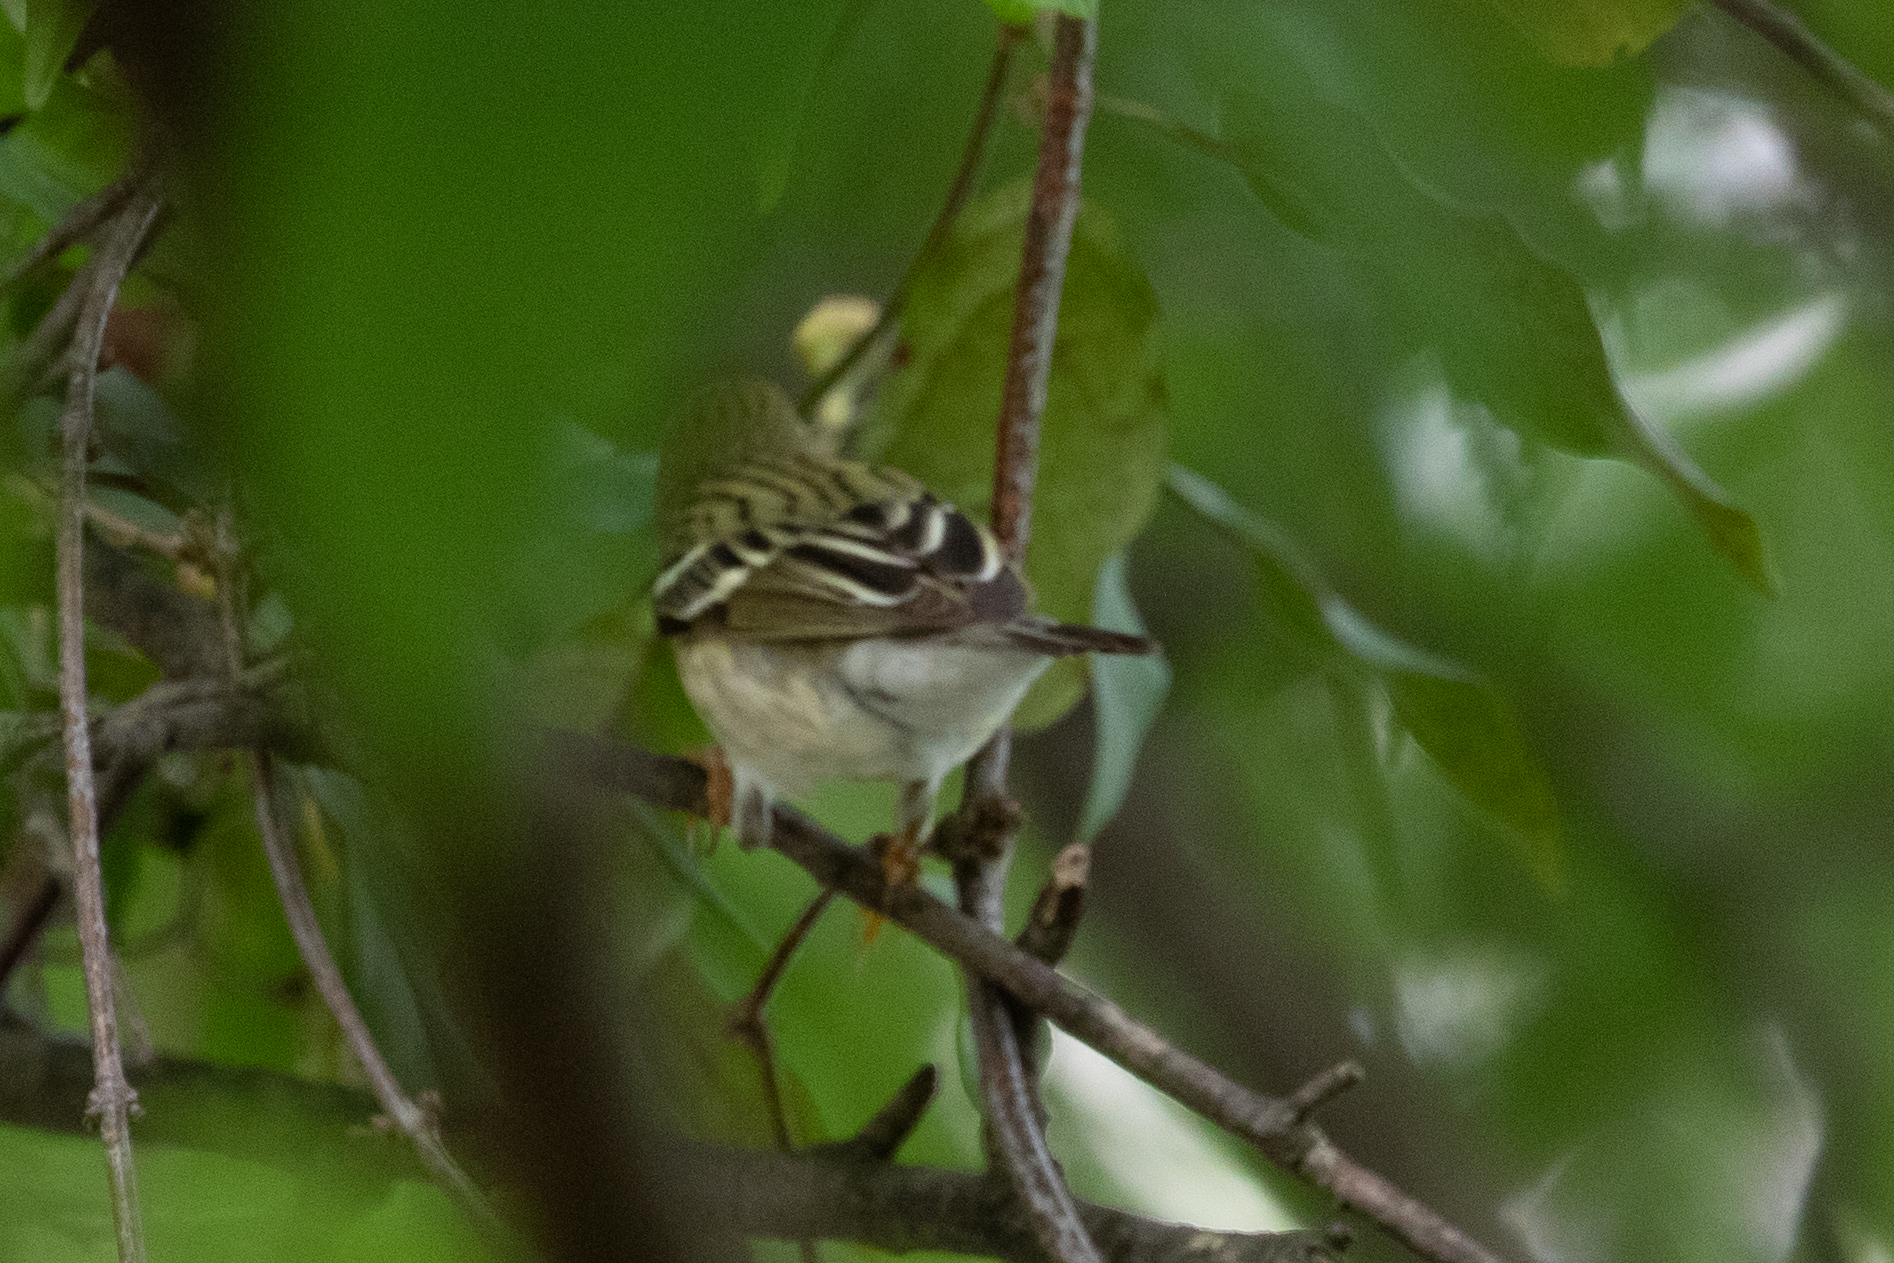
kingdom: Animalia
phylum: Chordata
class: Aves
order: Passeriformes
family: Parulidae
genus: Setophaga
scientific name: Setophaga striata
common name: Blackpoll warbler
